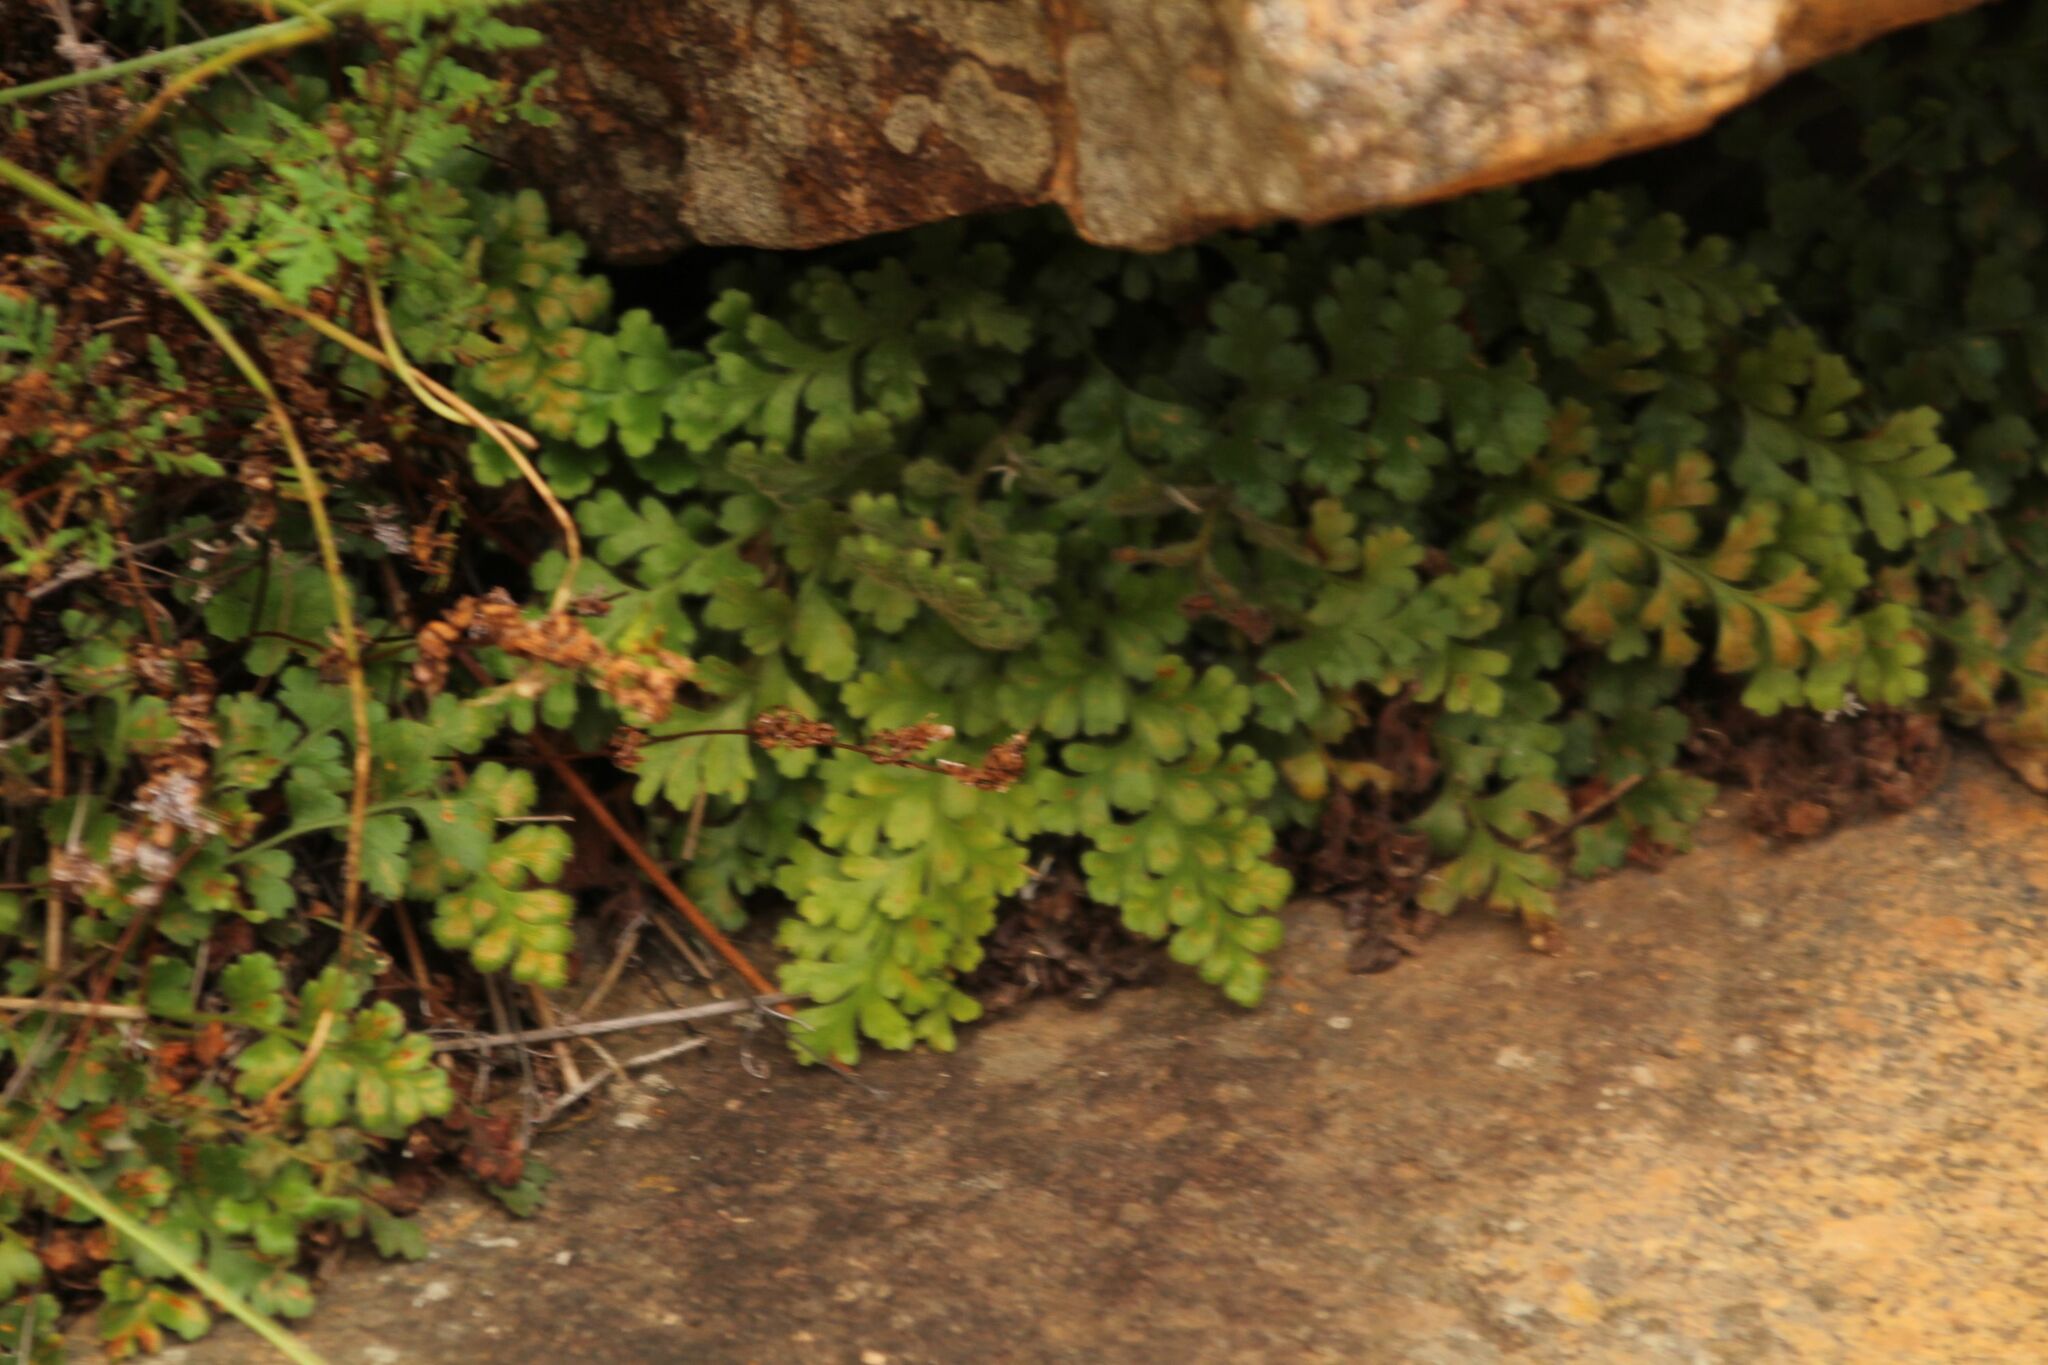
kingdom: Plantae
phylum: Tracheophyta
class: Polypodiopsida
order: Polypodiales
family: Aspleniaceae
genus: Asplenium
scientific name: Asplenium subglandulosum
